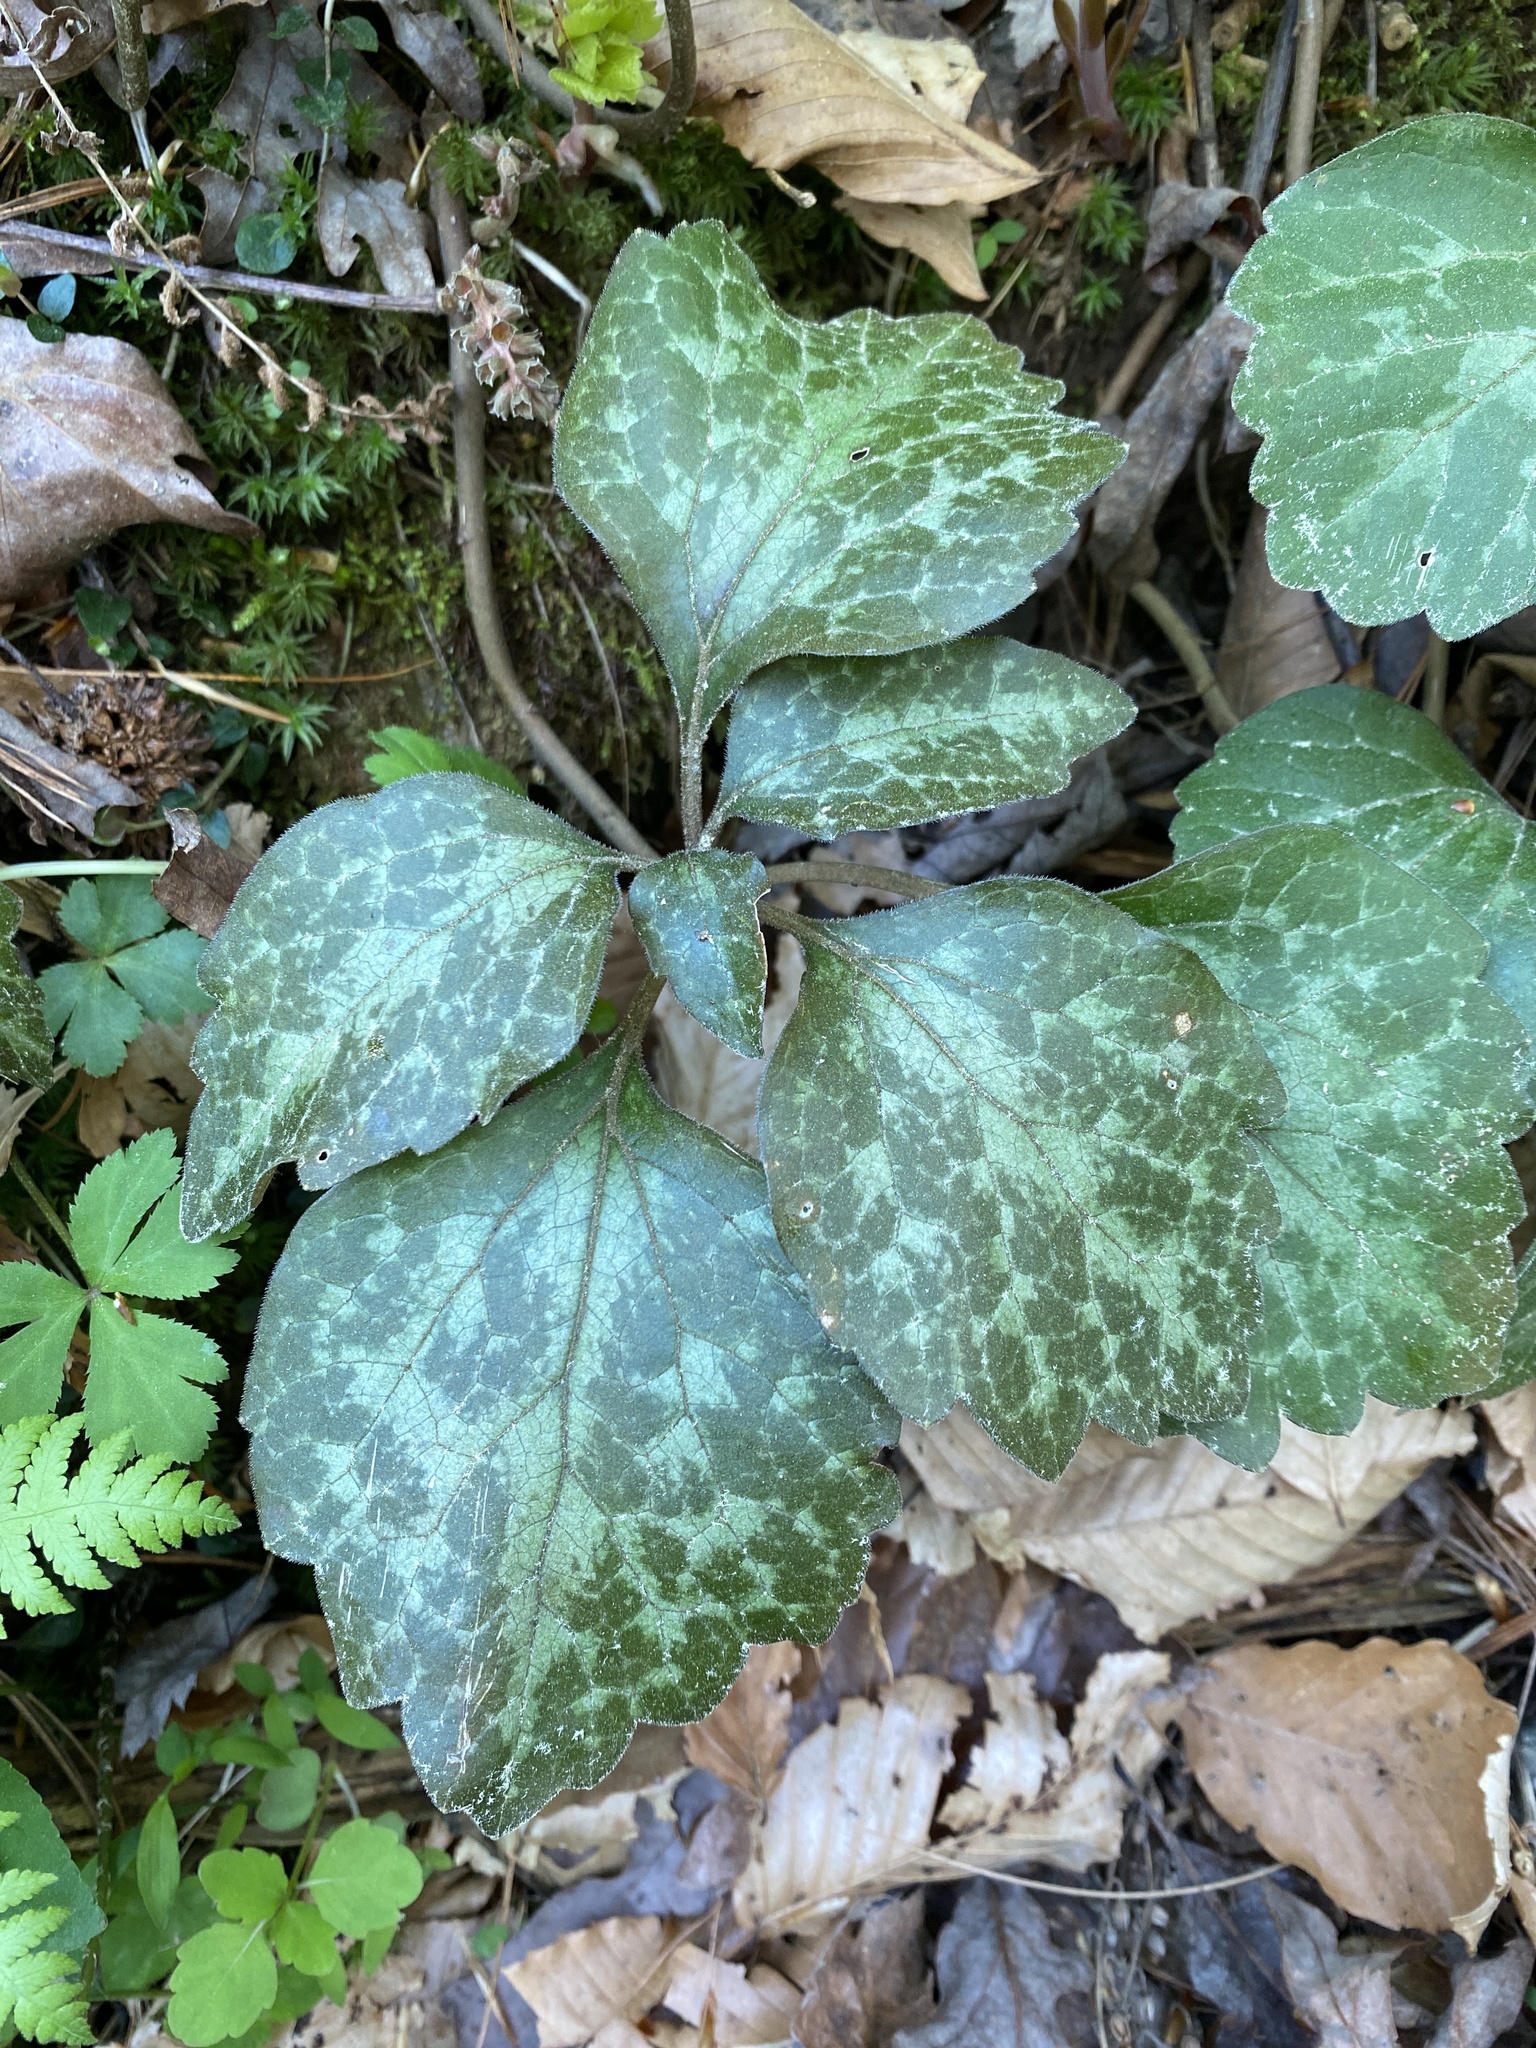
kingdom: Plantae
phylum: Tracheophyta
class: Magnoliopsida
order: Buxales
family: Buxaceae
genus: Pachysandra
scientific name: Pachysandra procumbens
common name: Mountain-spurge
